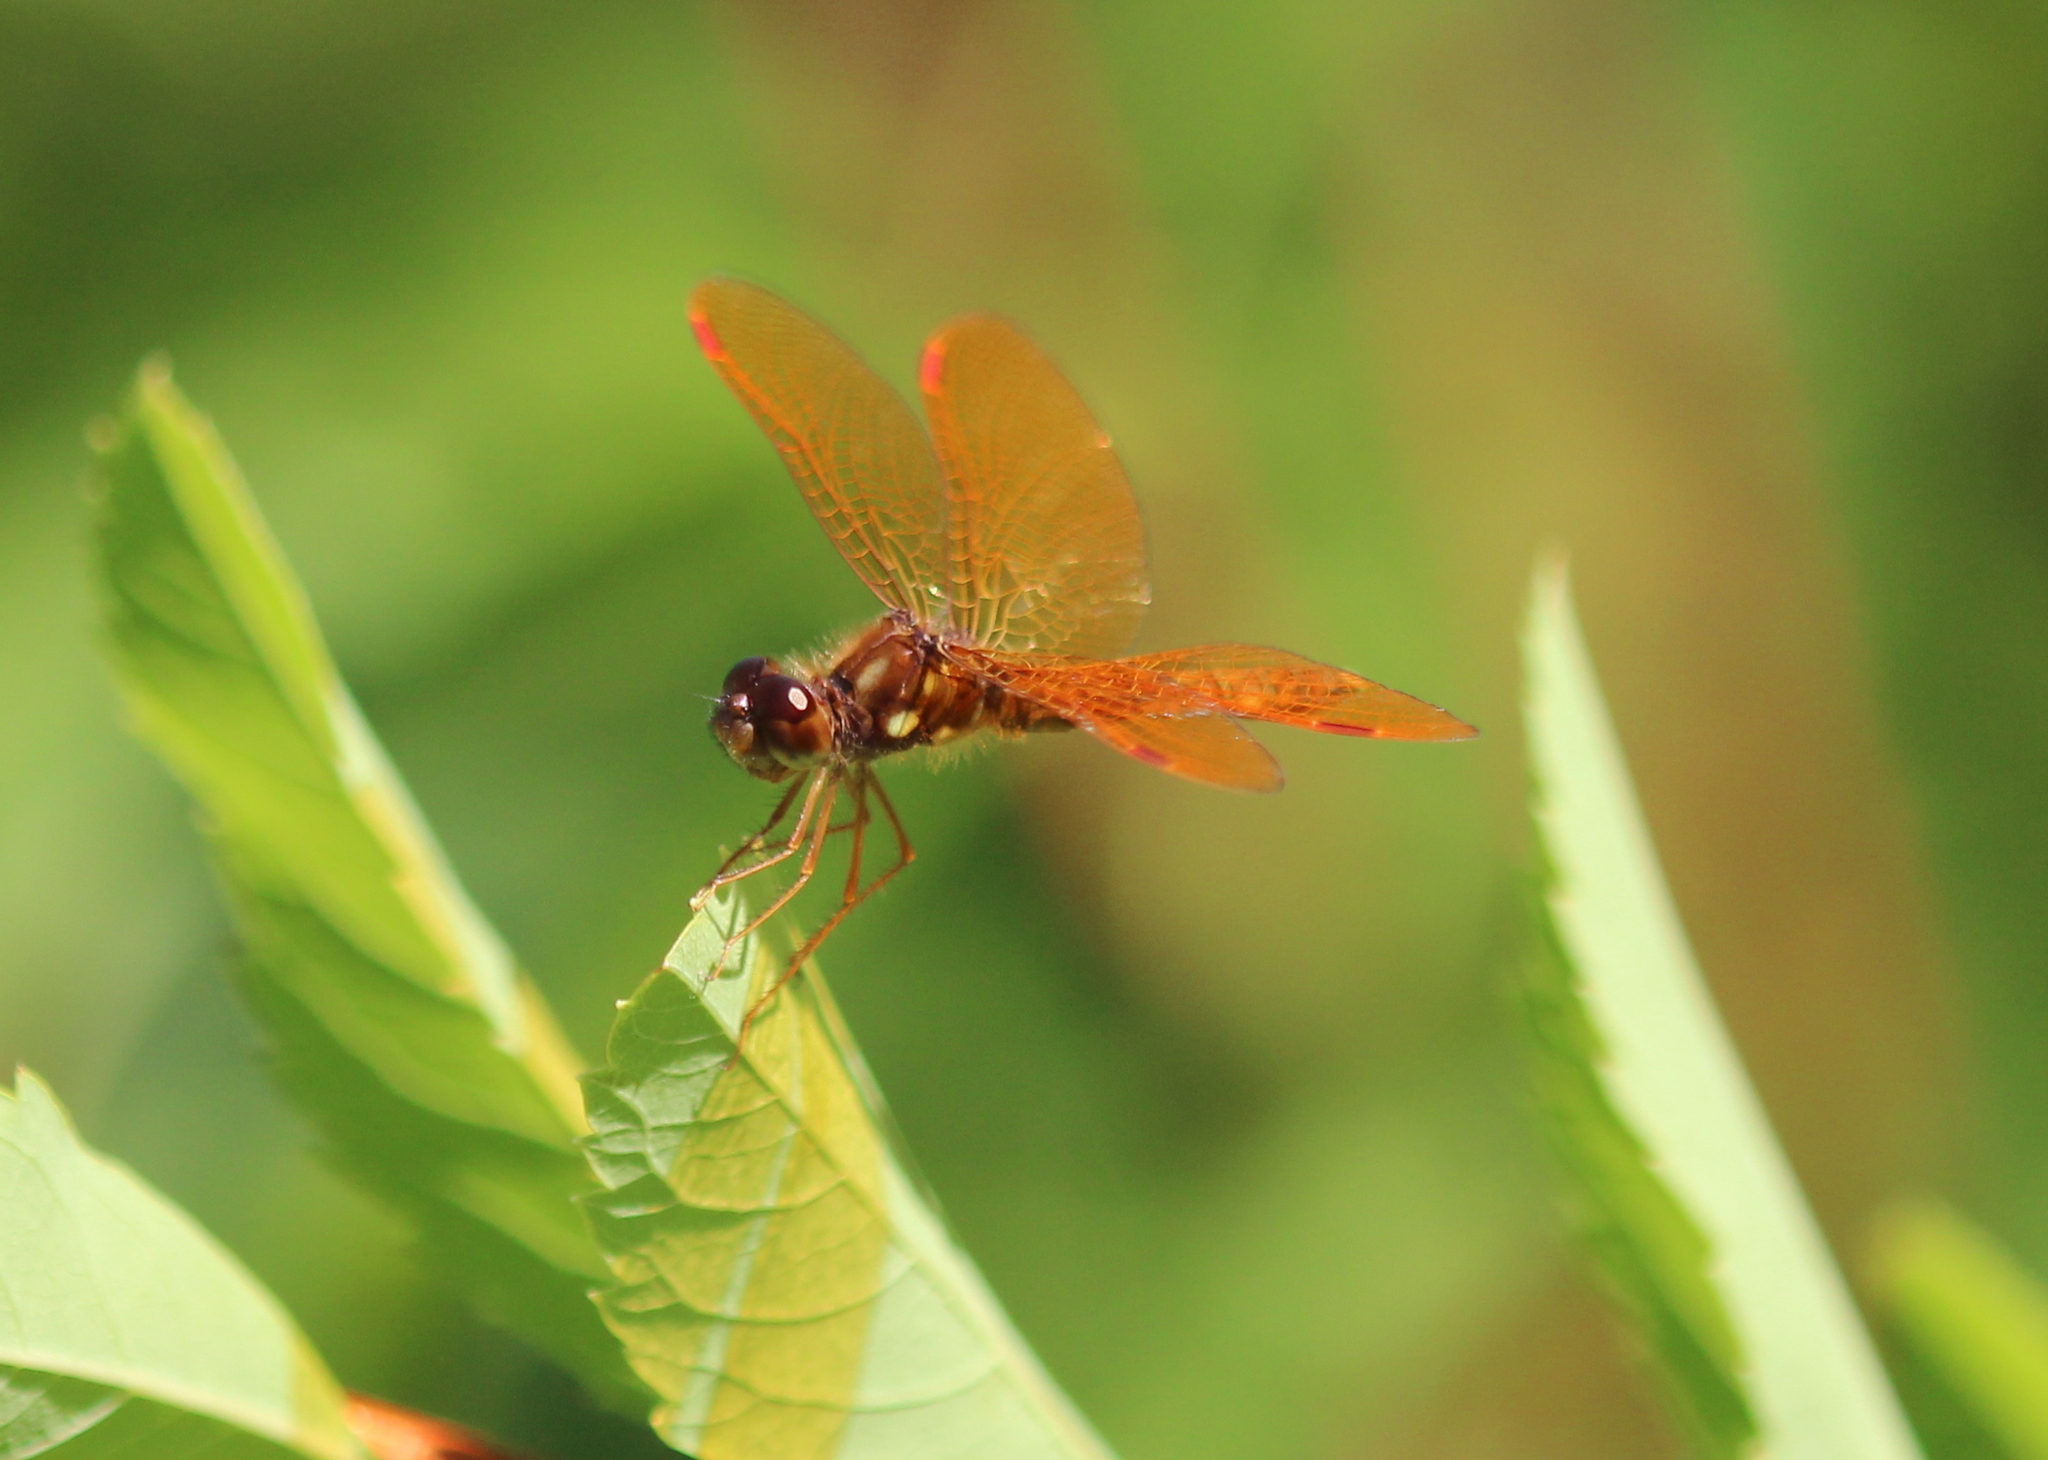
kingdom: Animalia
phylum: Arthropoda
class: Insecta
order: Odonata
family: Libellulidae
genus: Perithemis
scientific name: Perithemis tenera
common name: Eastern amberwing
